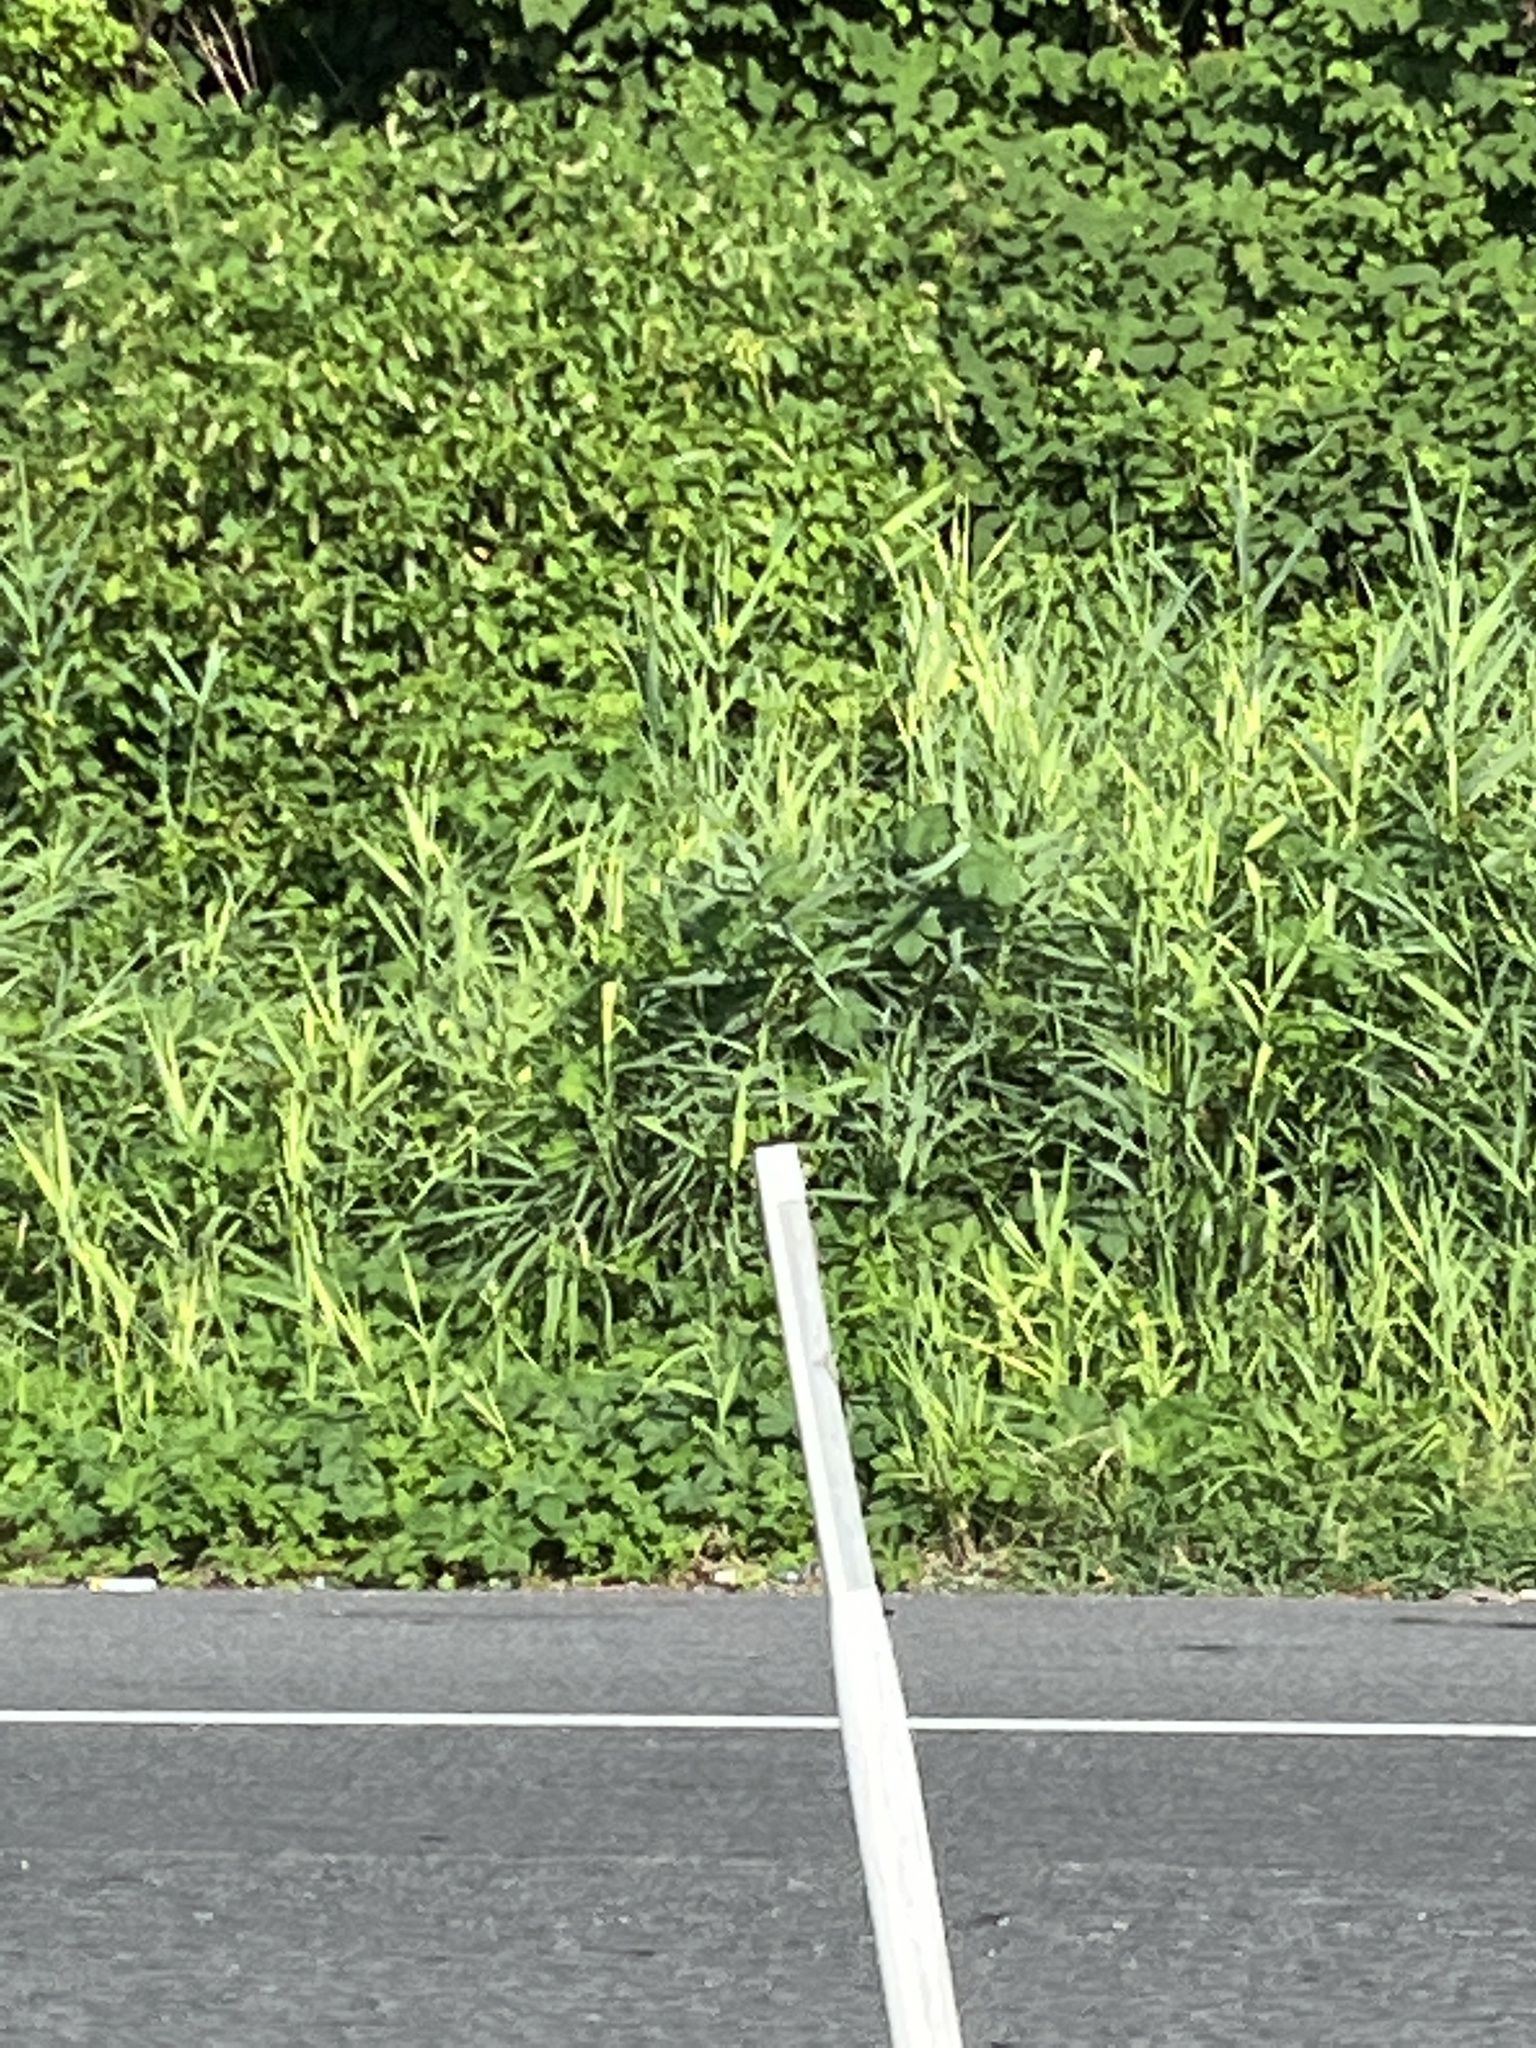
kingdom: Plantae
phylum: Tracheophyta
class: Liliopsida
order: Poales
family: Poaceae
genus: Phragmites
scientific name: Phragmites australis
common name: Common reed
